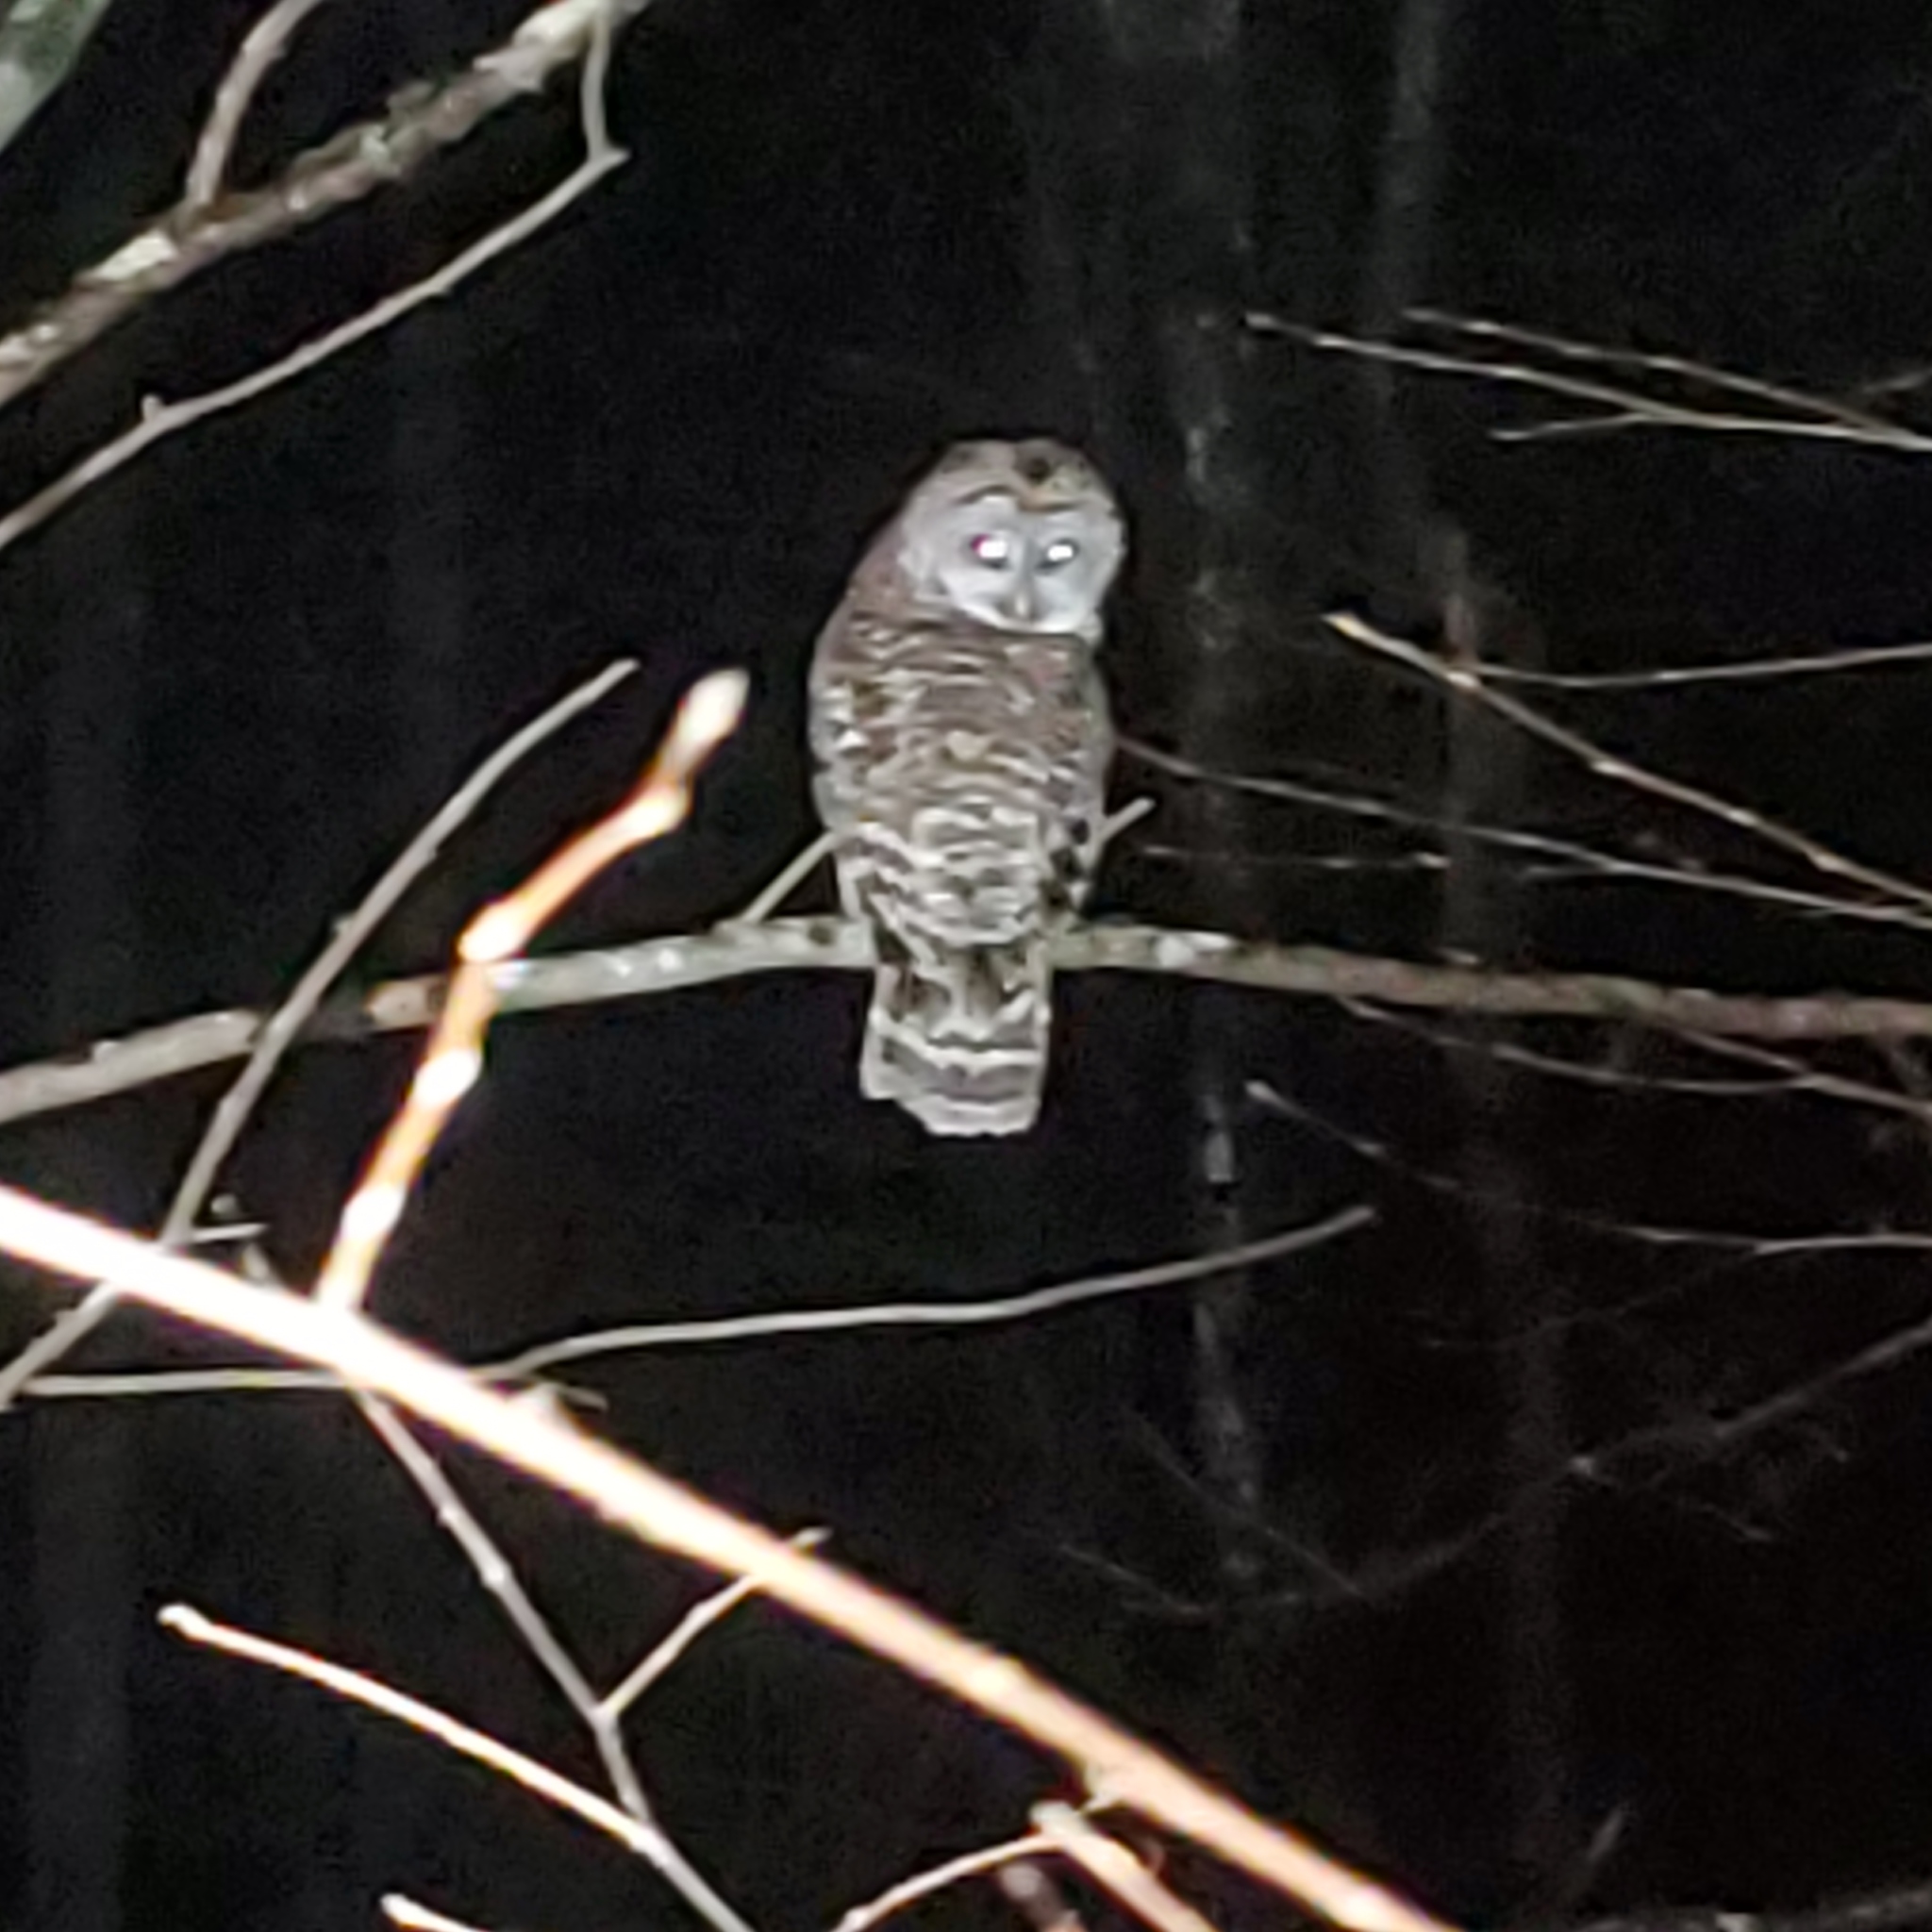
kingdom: Animalia
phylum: Chordata
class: Aves
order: Strigiformes
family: Strigidae
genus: Strix
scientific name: Strix varia
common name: Barred owl
